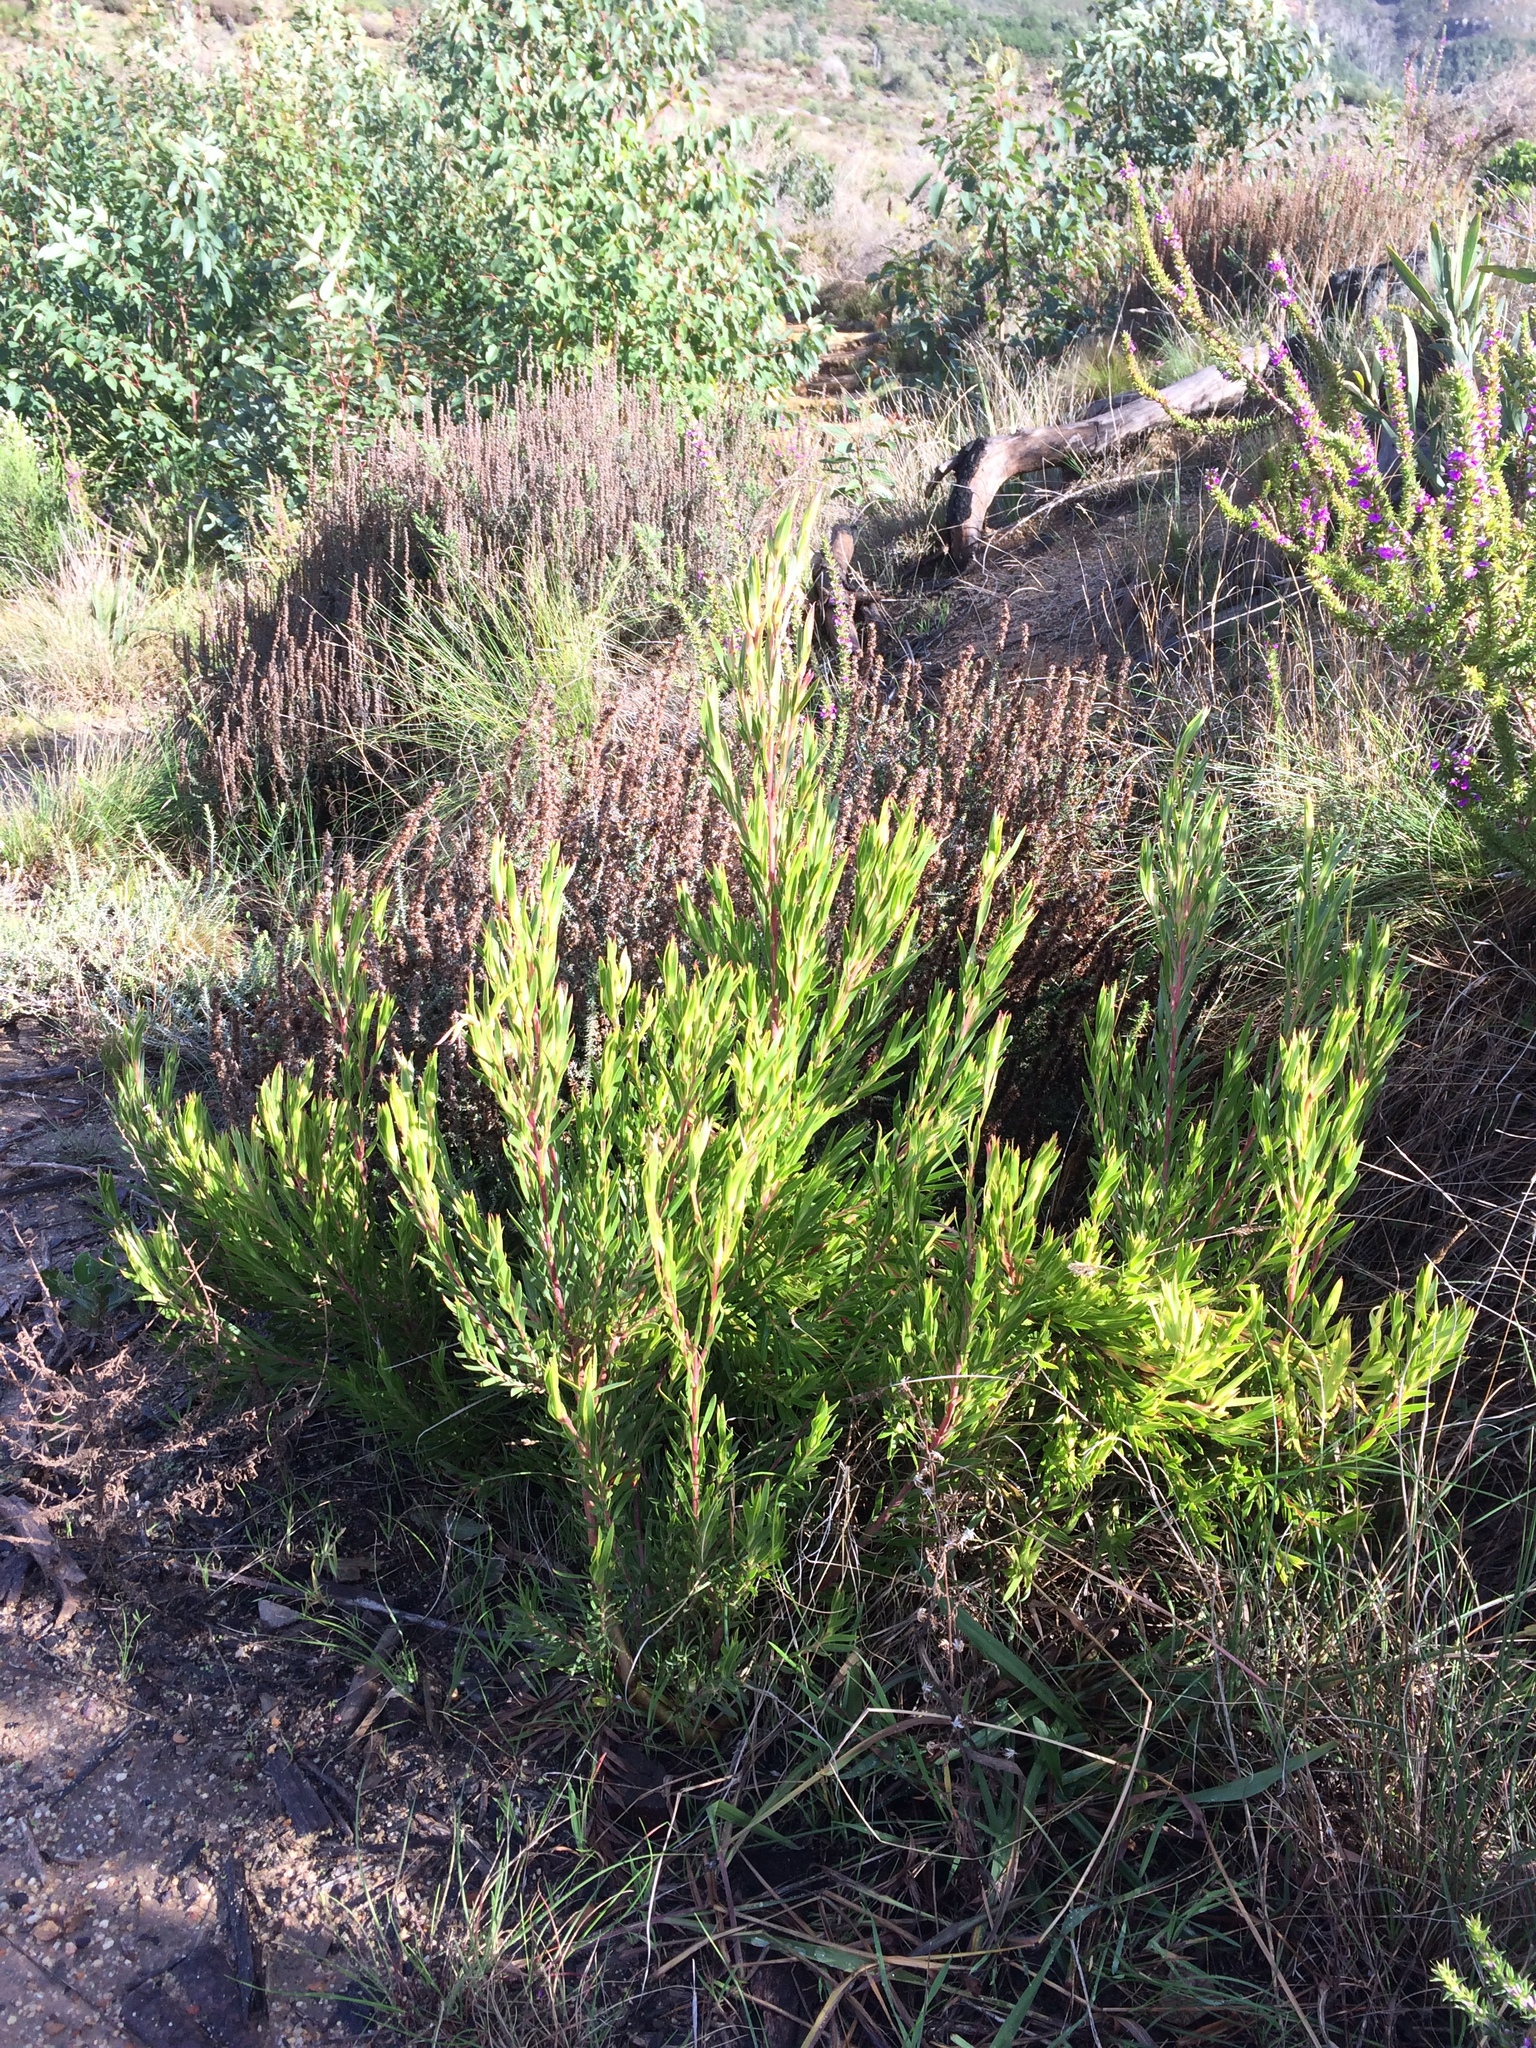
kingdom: Plantae
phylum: Tracheophyta
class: Magnoliopsida
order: Proteales
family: Proteaceae
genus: Leucadendron
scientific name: Leucadendron xanthoconus
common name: Sickle-leaf conebush
